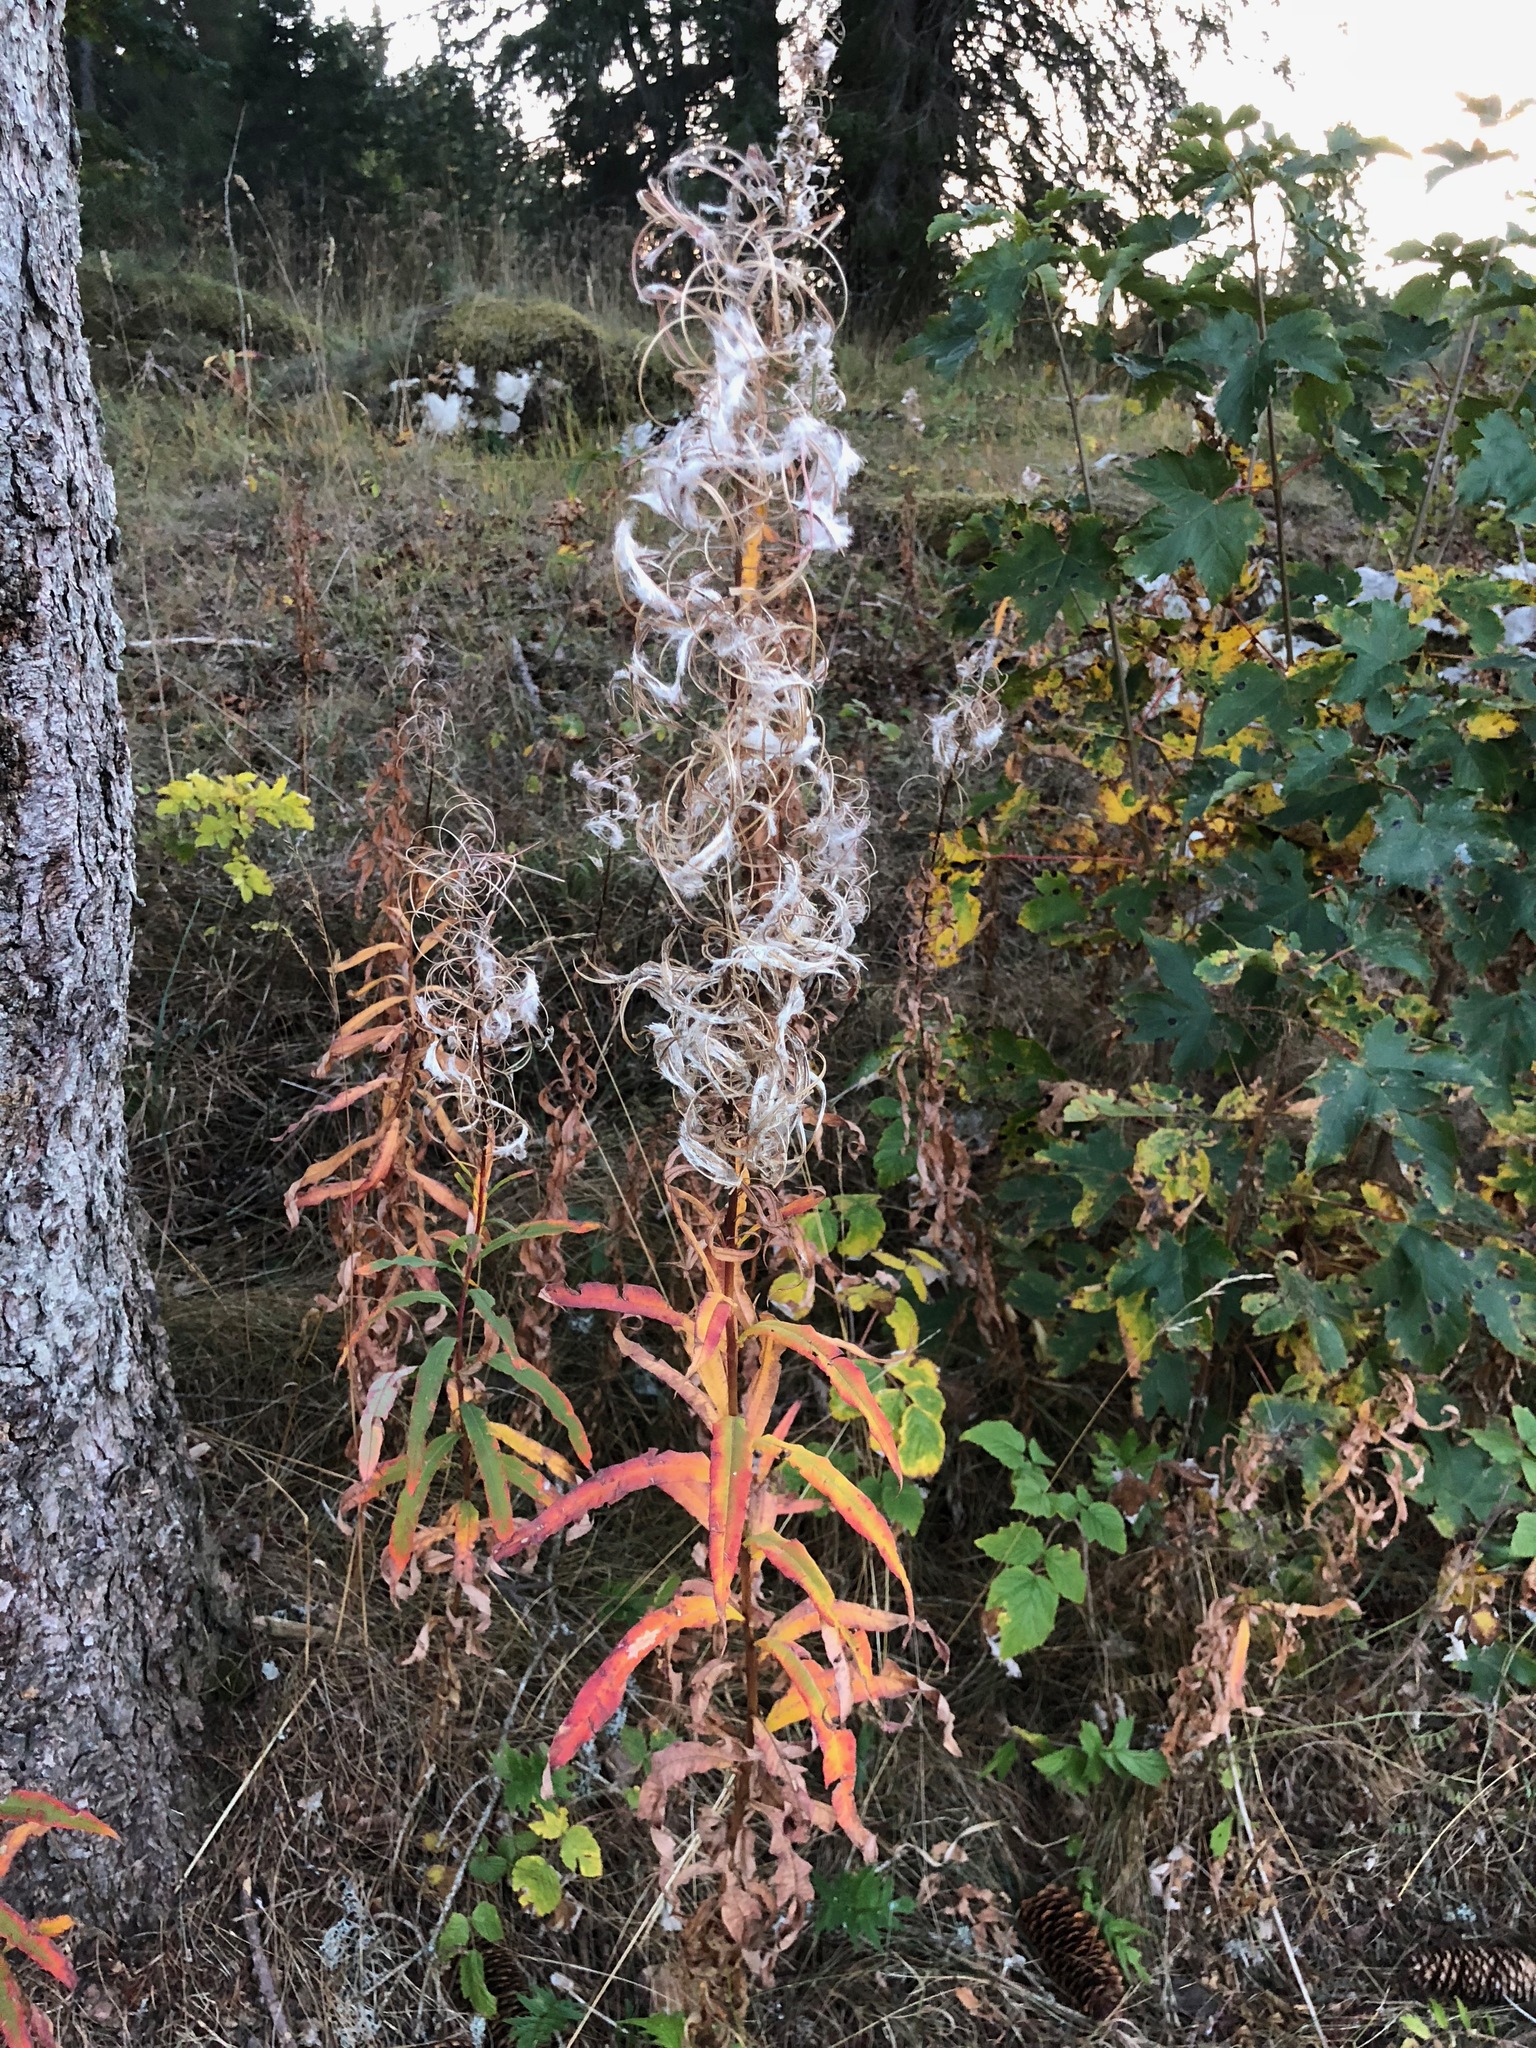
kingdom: Plantae
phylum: Tracheophyta
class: Magnoliopsida
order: Myrtales
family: Onagraceae
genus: Chamaenerion
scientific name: Chamaenerion angustifolium
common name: Fireweed
